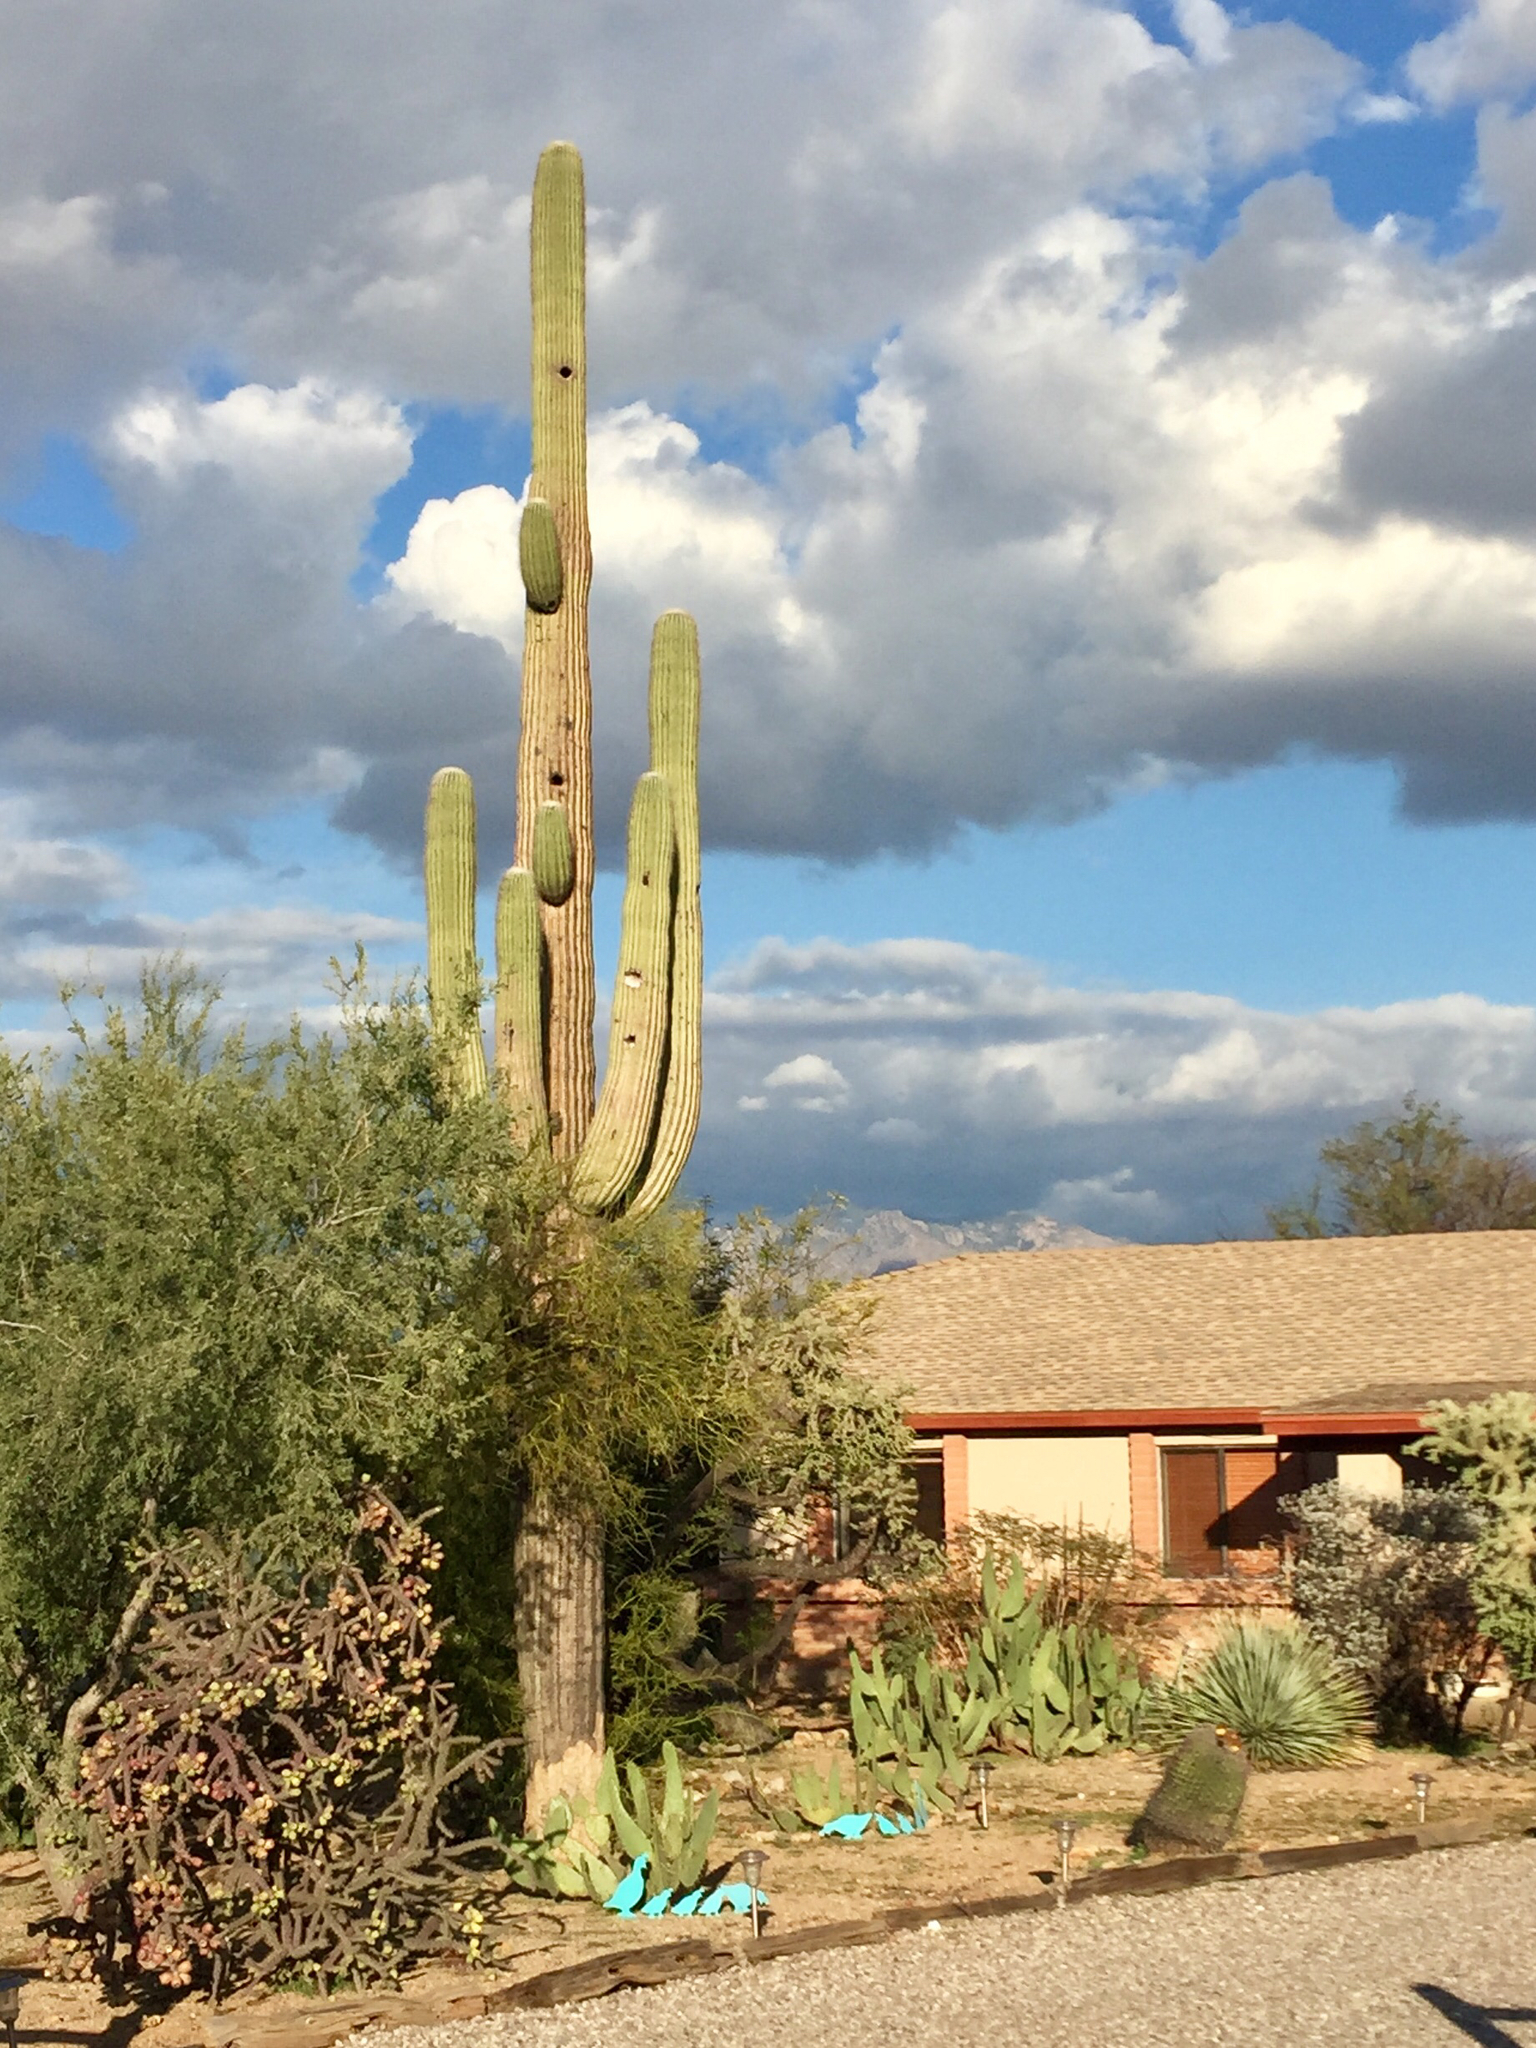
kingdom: Plantae
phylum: Tracheophyta
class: Magnoliopsida
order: Caryophyllales
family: Cactaceae
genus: Carnegiea
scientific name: Carnegiea gigantea
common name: Saguaro
